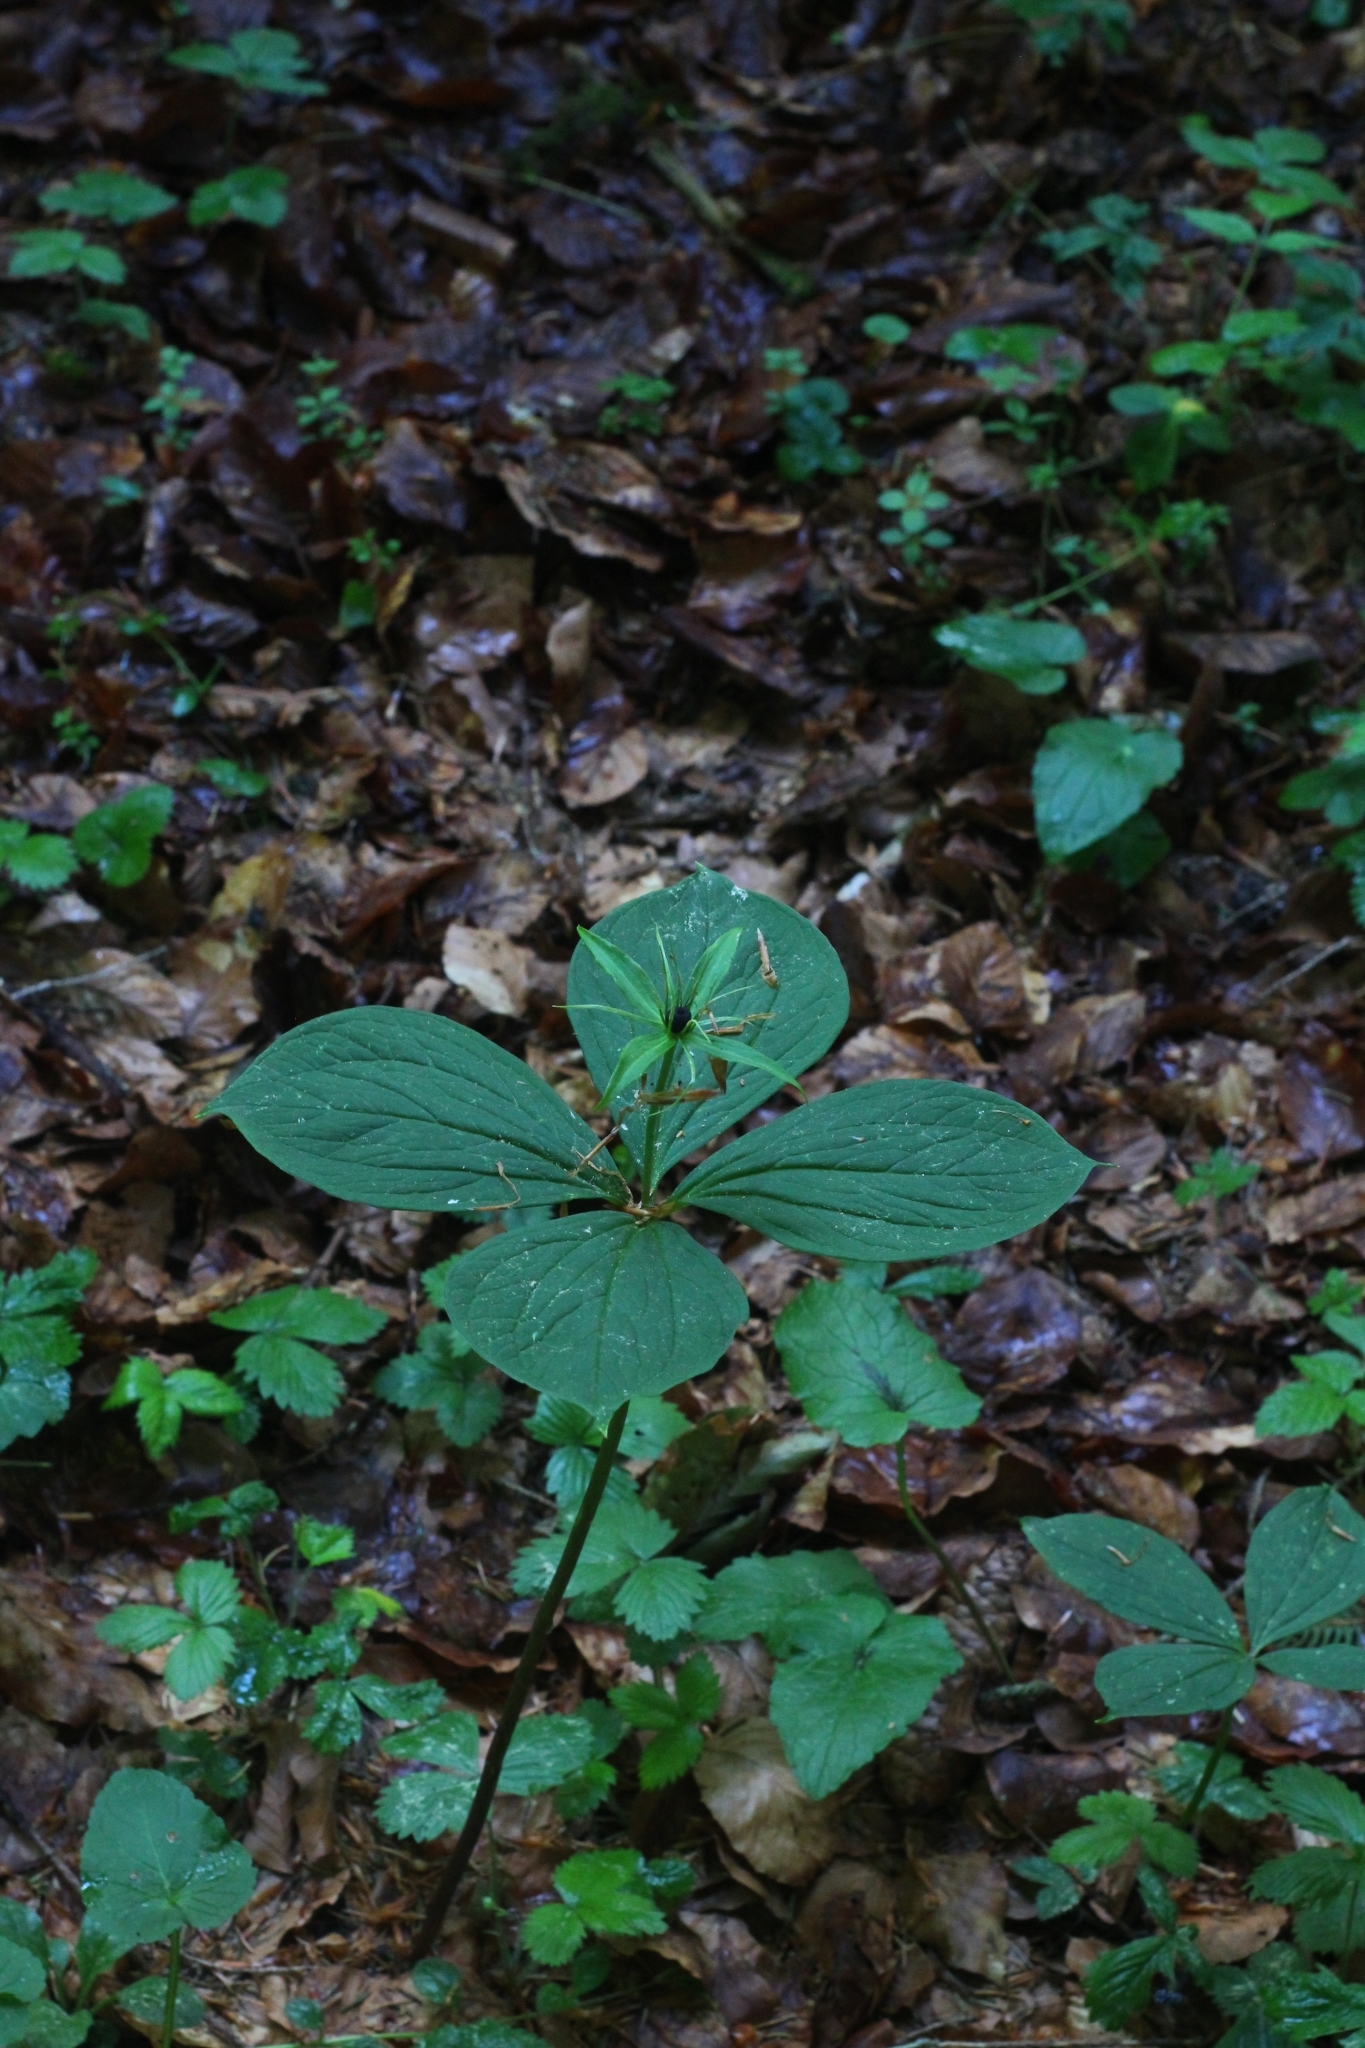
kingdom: Plantae
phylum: Tracheophyta
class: Liliopsida
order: Liliales
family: Melanthiaceae
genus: Paris
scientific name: Paris quadrifolia
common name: Herb-paris
